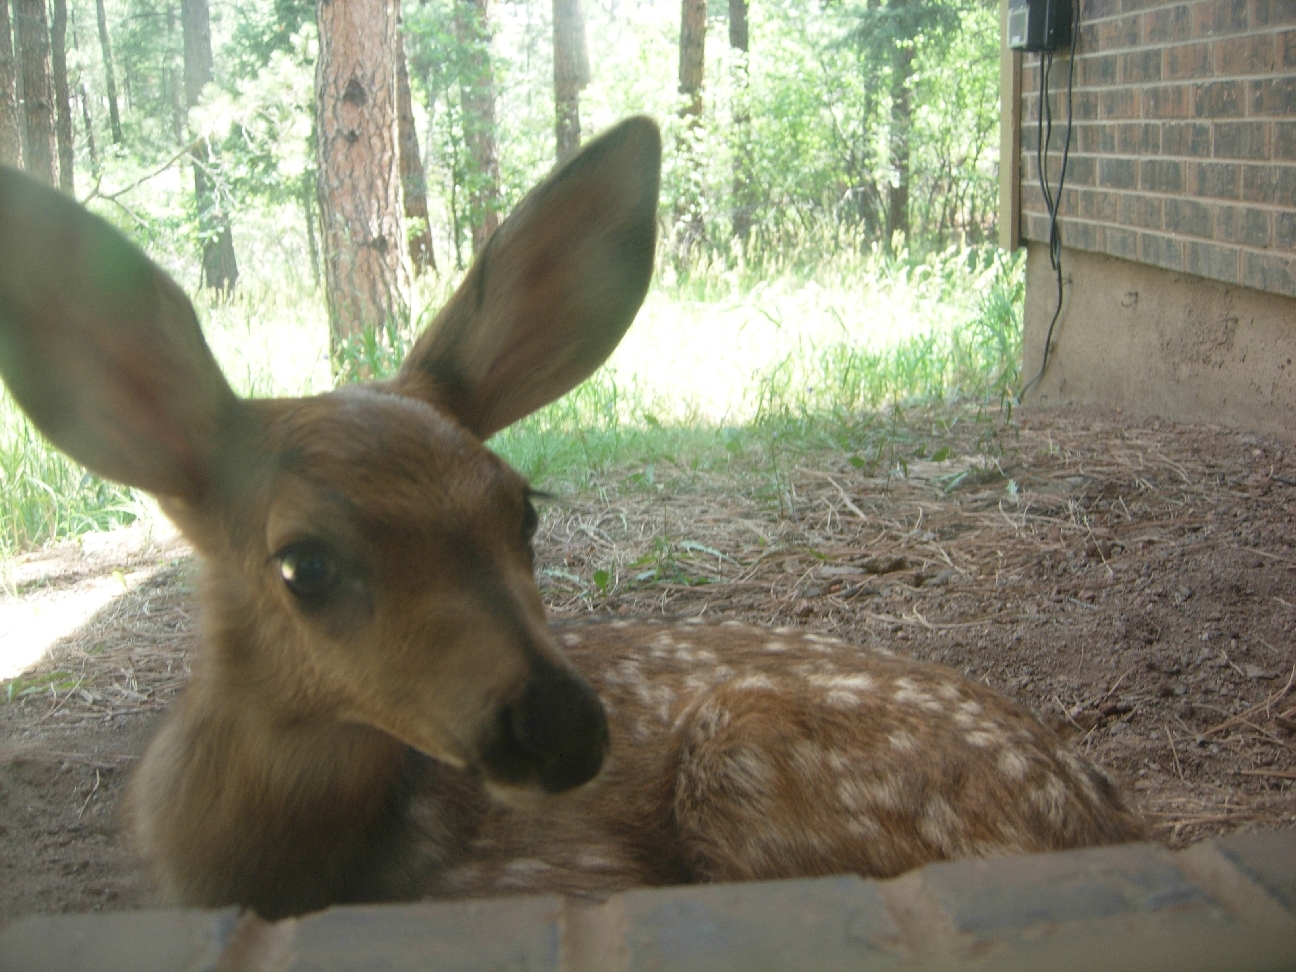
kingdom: Animalia
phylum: Chordata
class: Mammalia
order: Artiodactyla
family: Cervidae
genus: Odocoileus
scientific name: Odocoileus hemionus
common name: Mule deer
